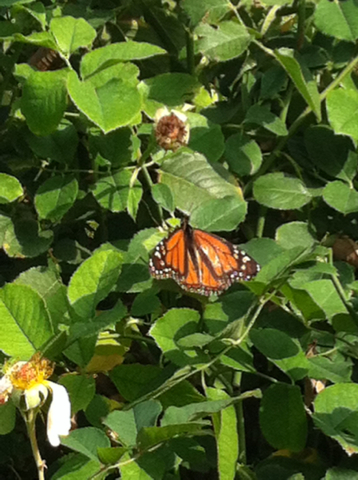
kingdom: Animalia
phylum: Arthropoda
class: Insecta
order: Lepidoptera
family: Nymphalidae
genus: Danaus
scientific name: Danaus plexippus
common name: Monarch
